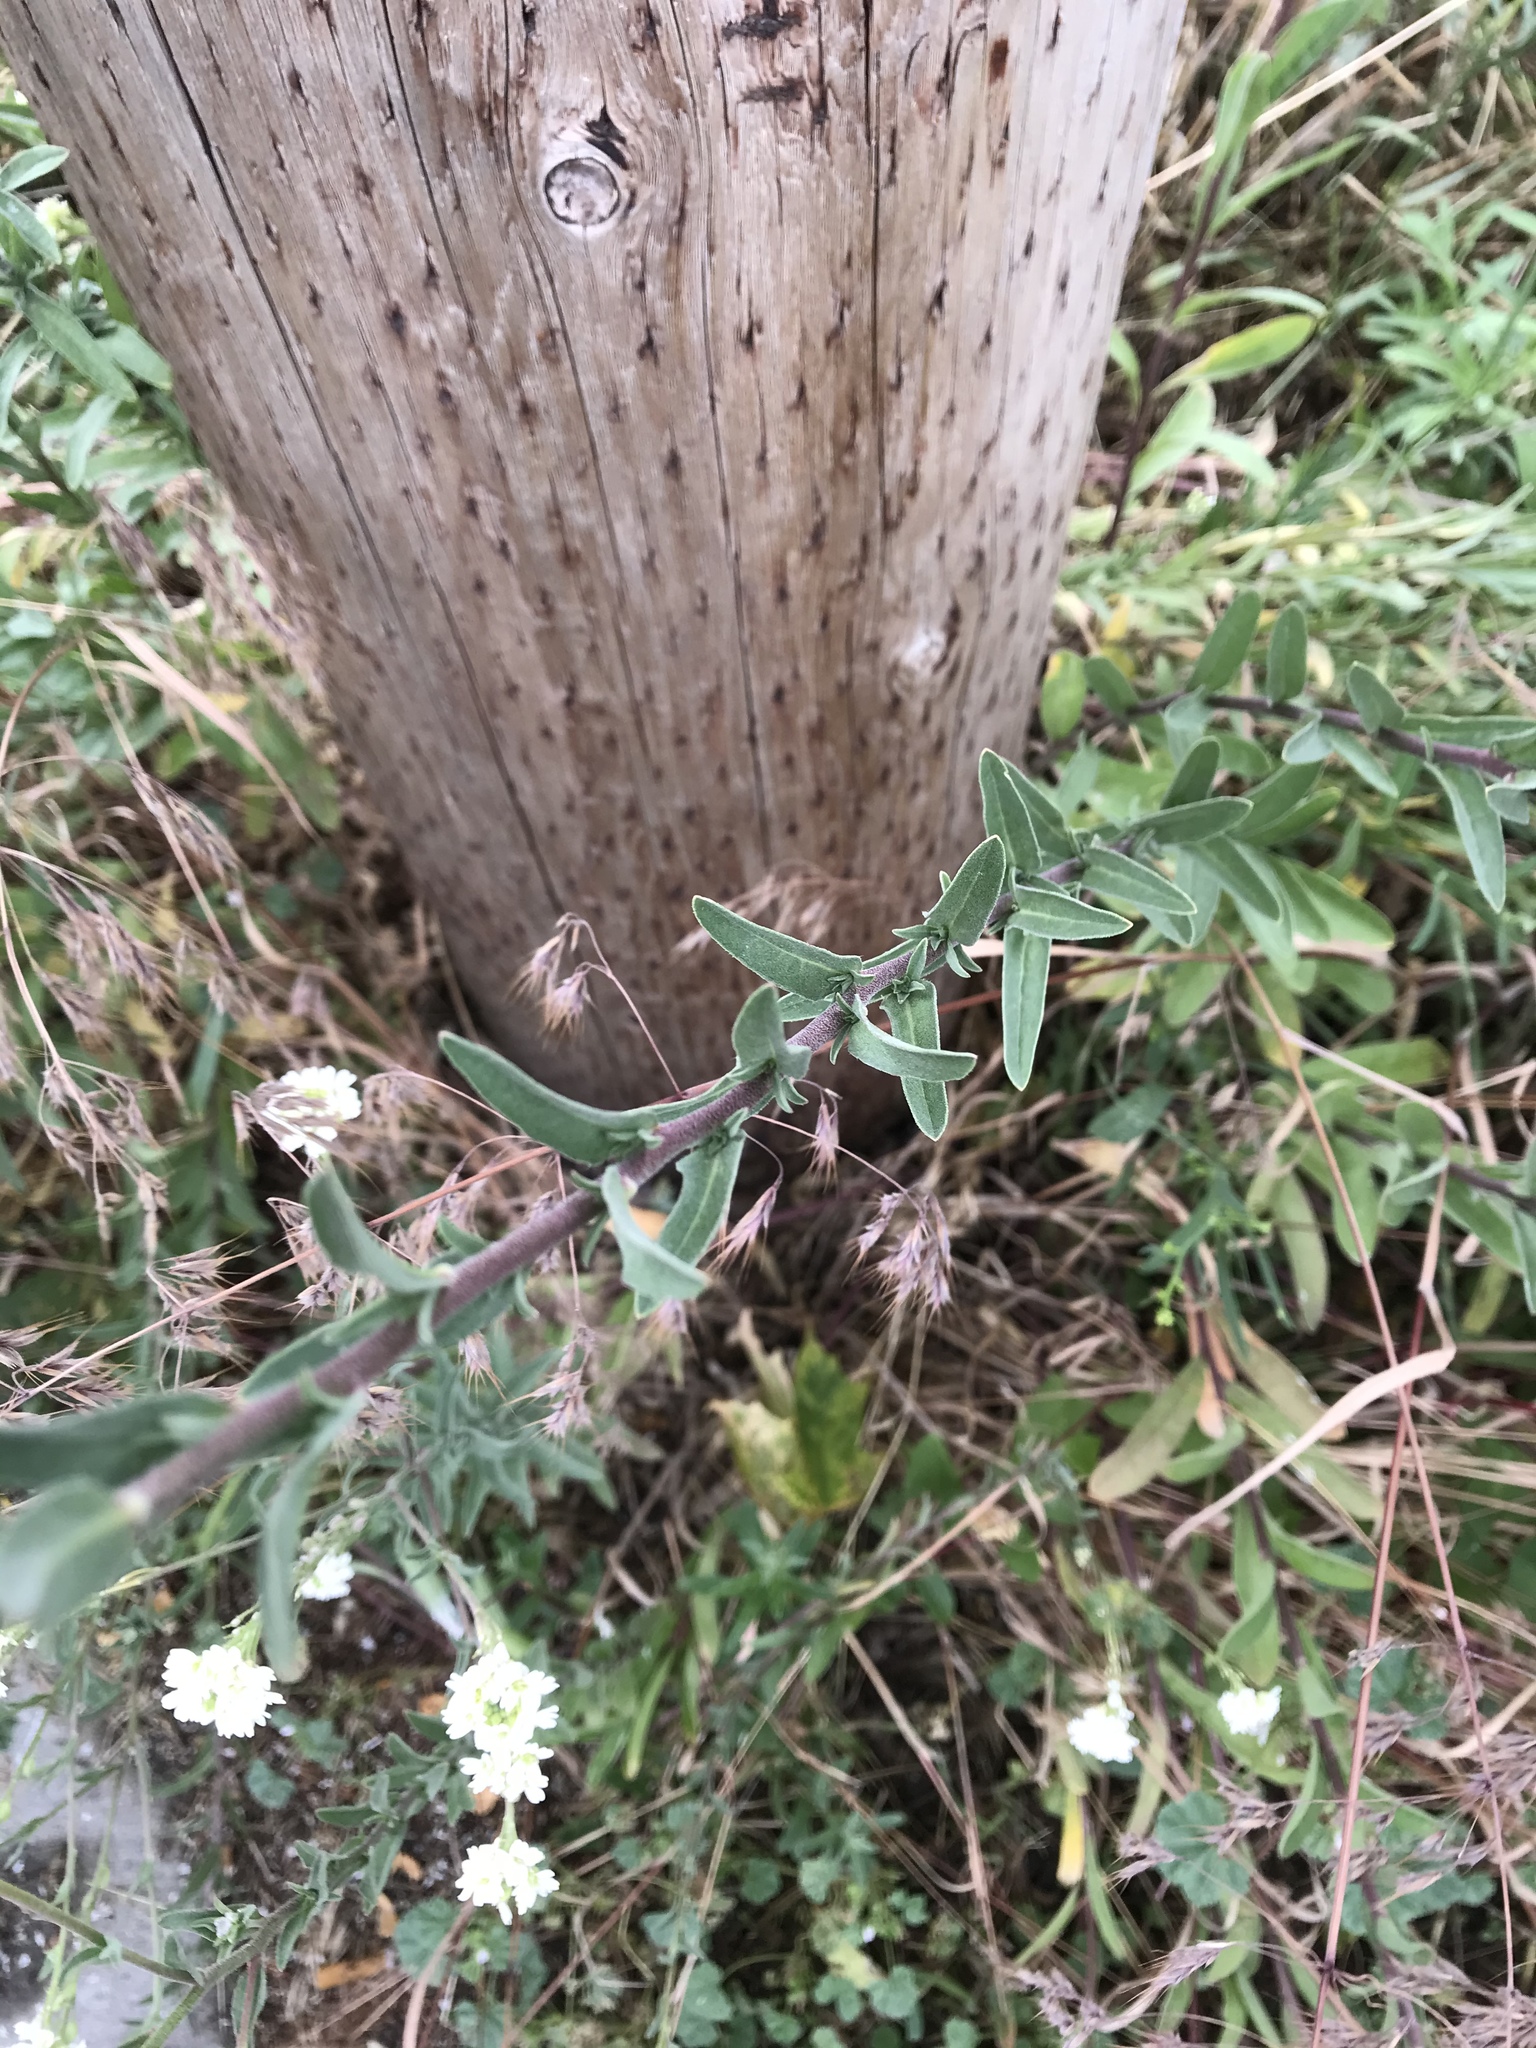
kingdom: Plantae
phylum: Tracheophyta
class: Magnoliopsida
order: Brassicales
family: Brassicaceae
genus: Berteroa
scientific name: Berteroa incana
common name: Hoary alison
